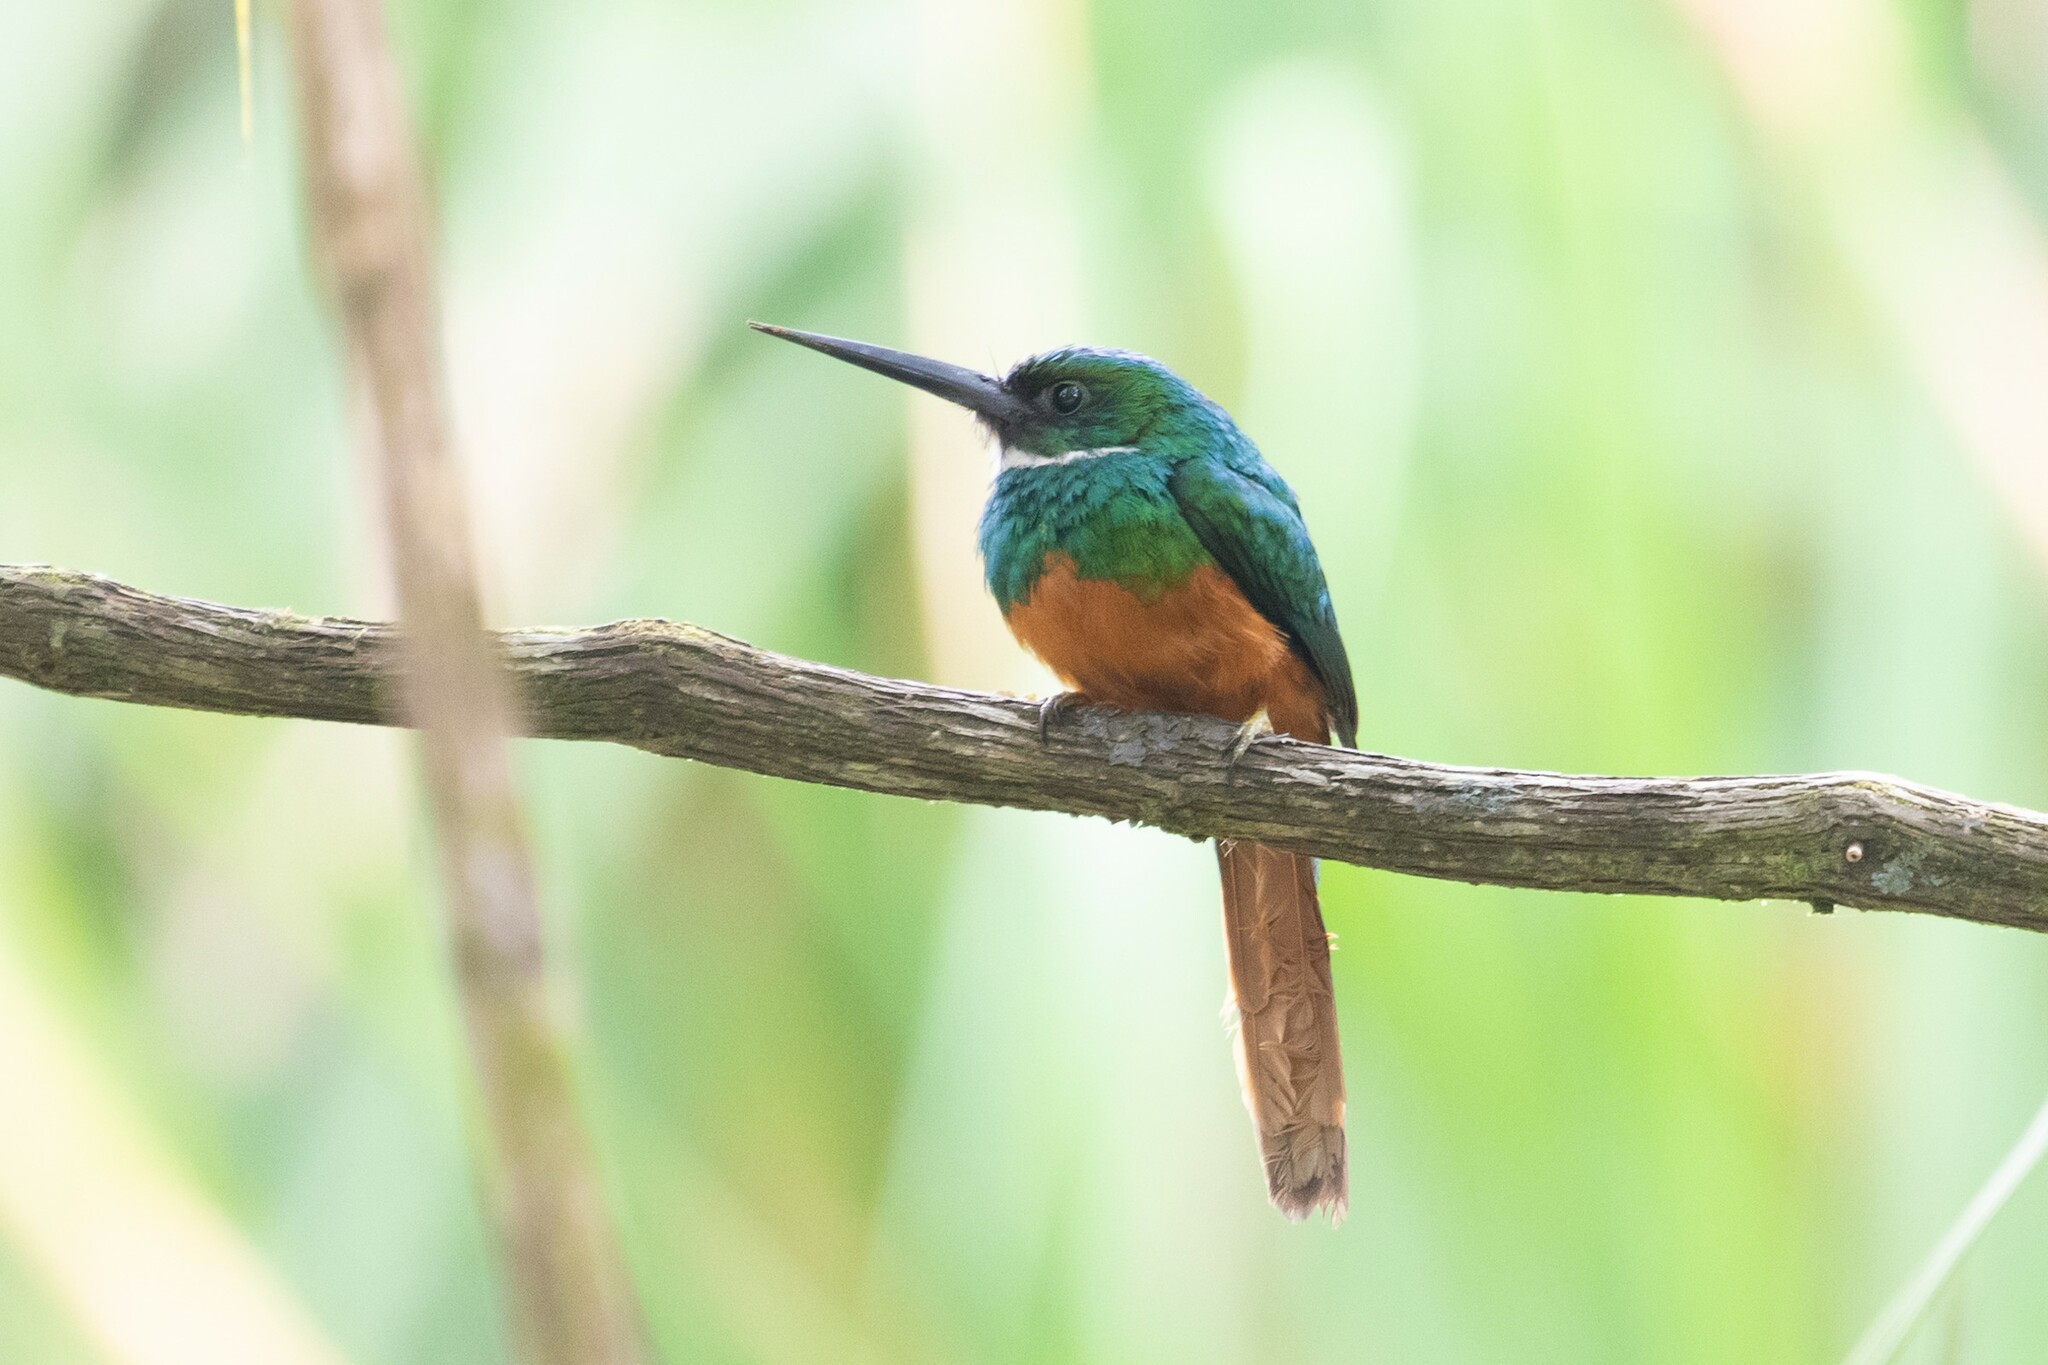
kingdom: Animalia
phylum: Chordata
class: Aves
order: Piciformes
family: Galbulidae
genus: Galbula
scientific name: Galbula ruficauda
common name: Rufous-tailed jacamar
